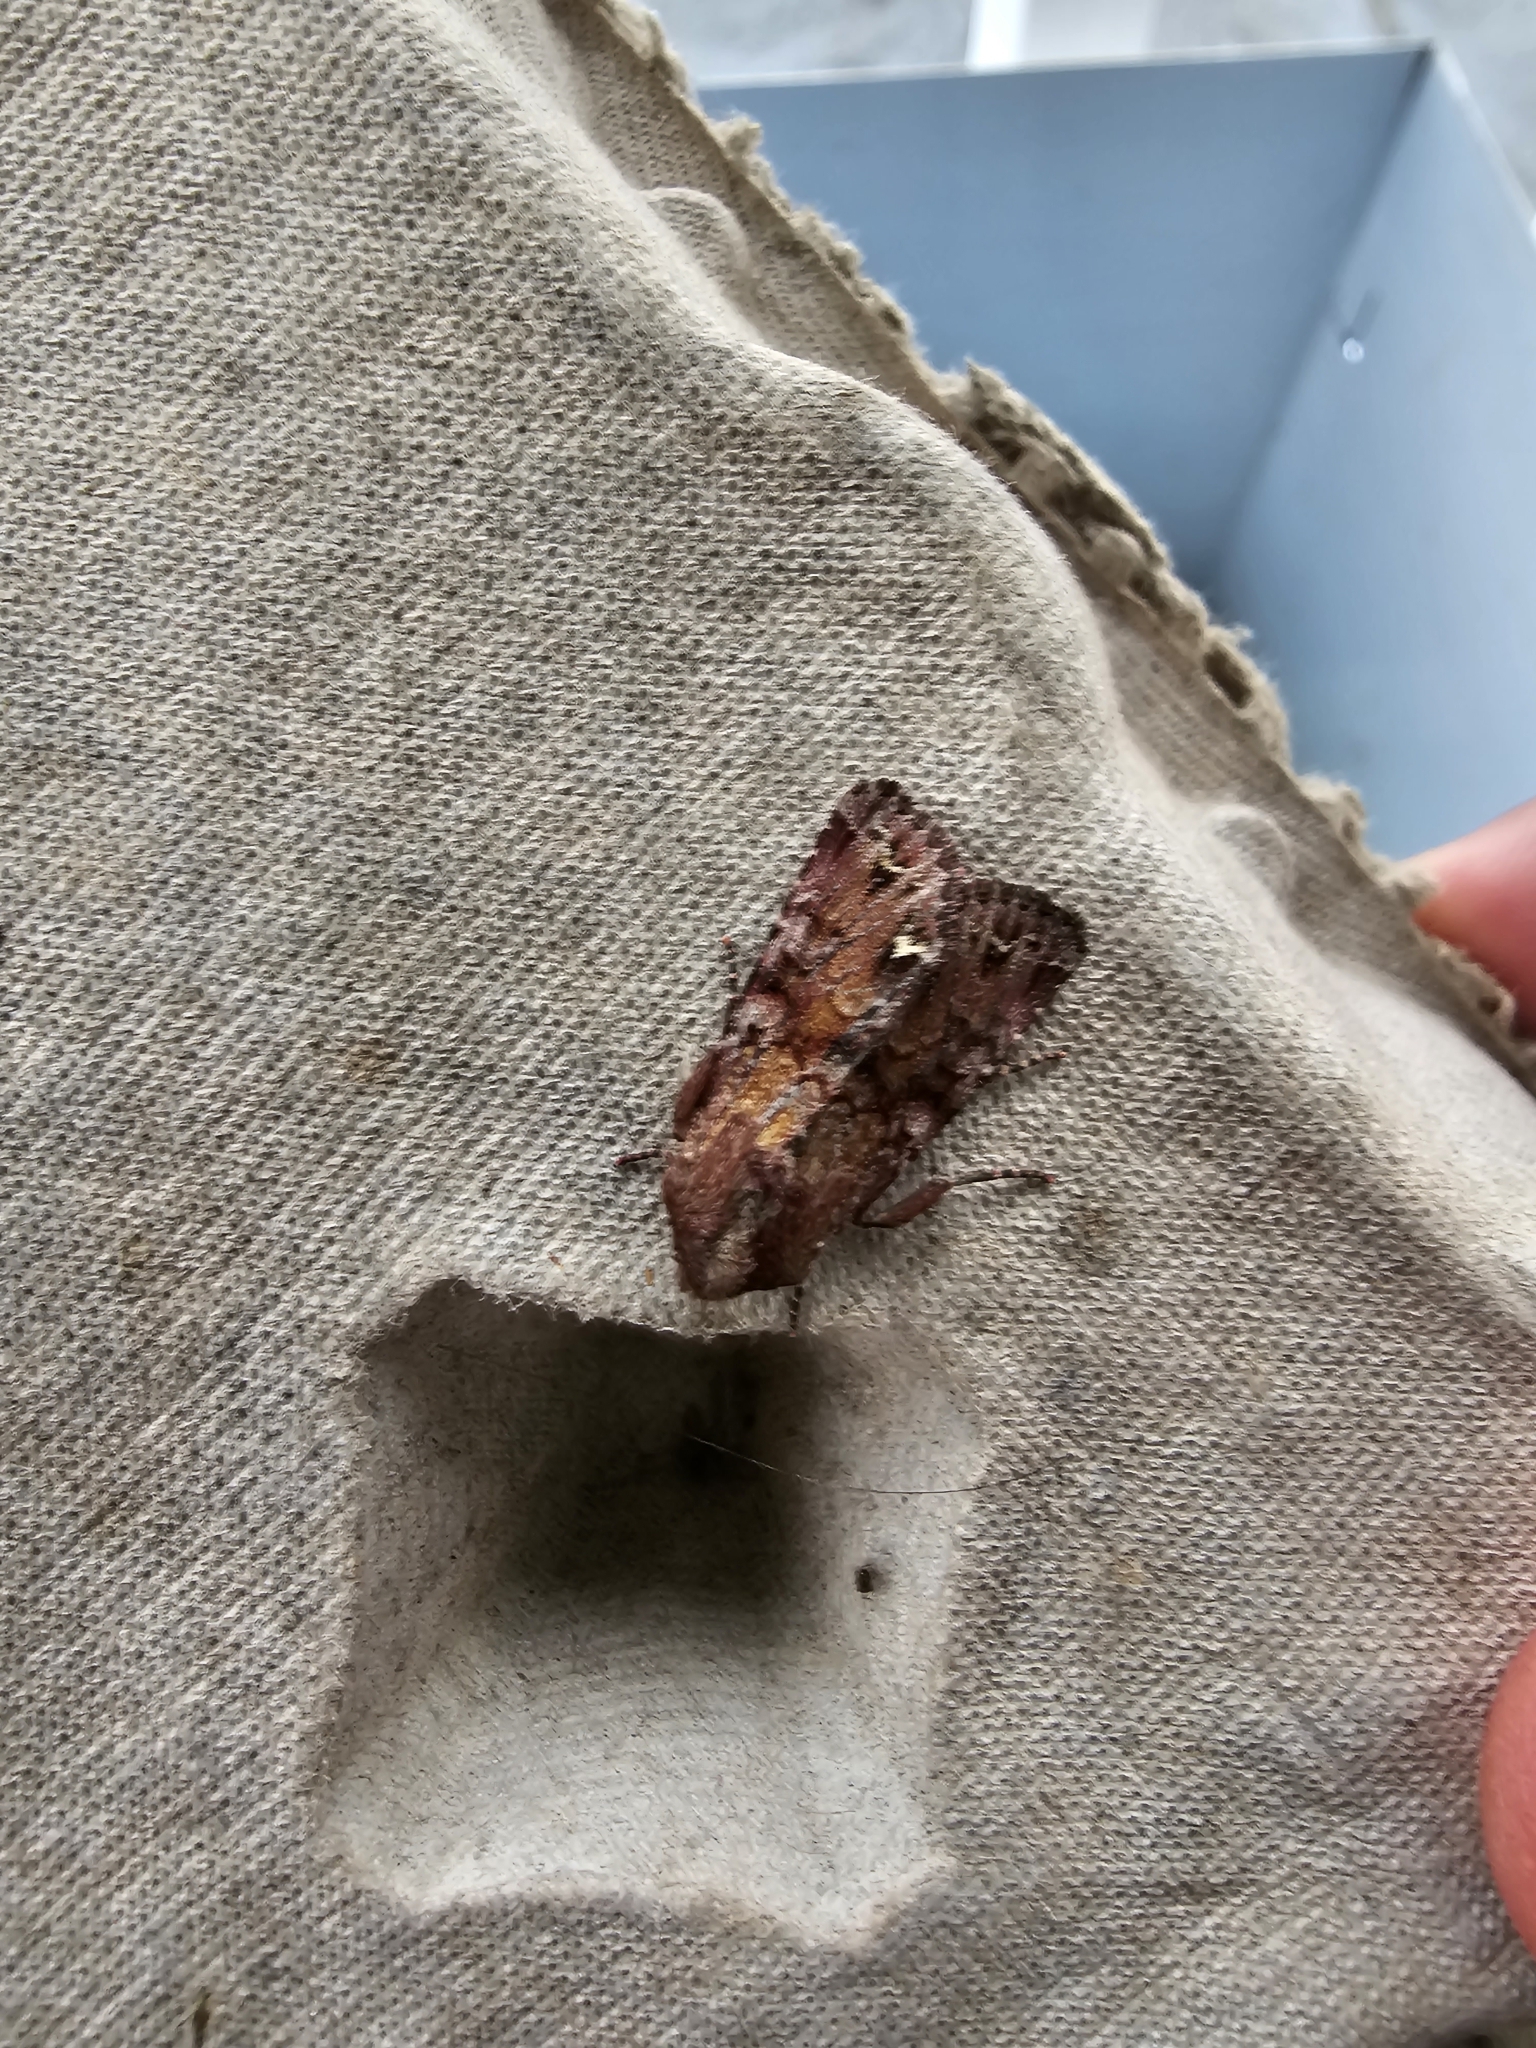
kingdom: Animalia
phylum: Arthropoda
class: Insecta
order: Lepidoptera
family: Noctuidae
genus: Ceramica
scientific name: Ceramica pisi
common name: Broom moth
